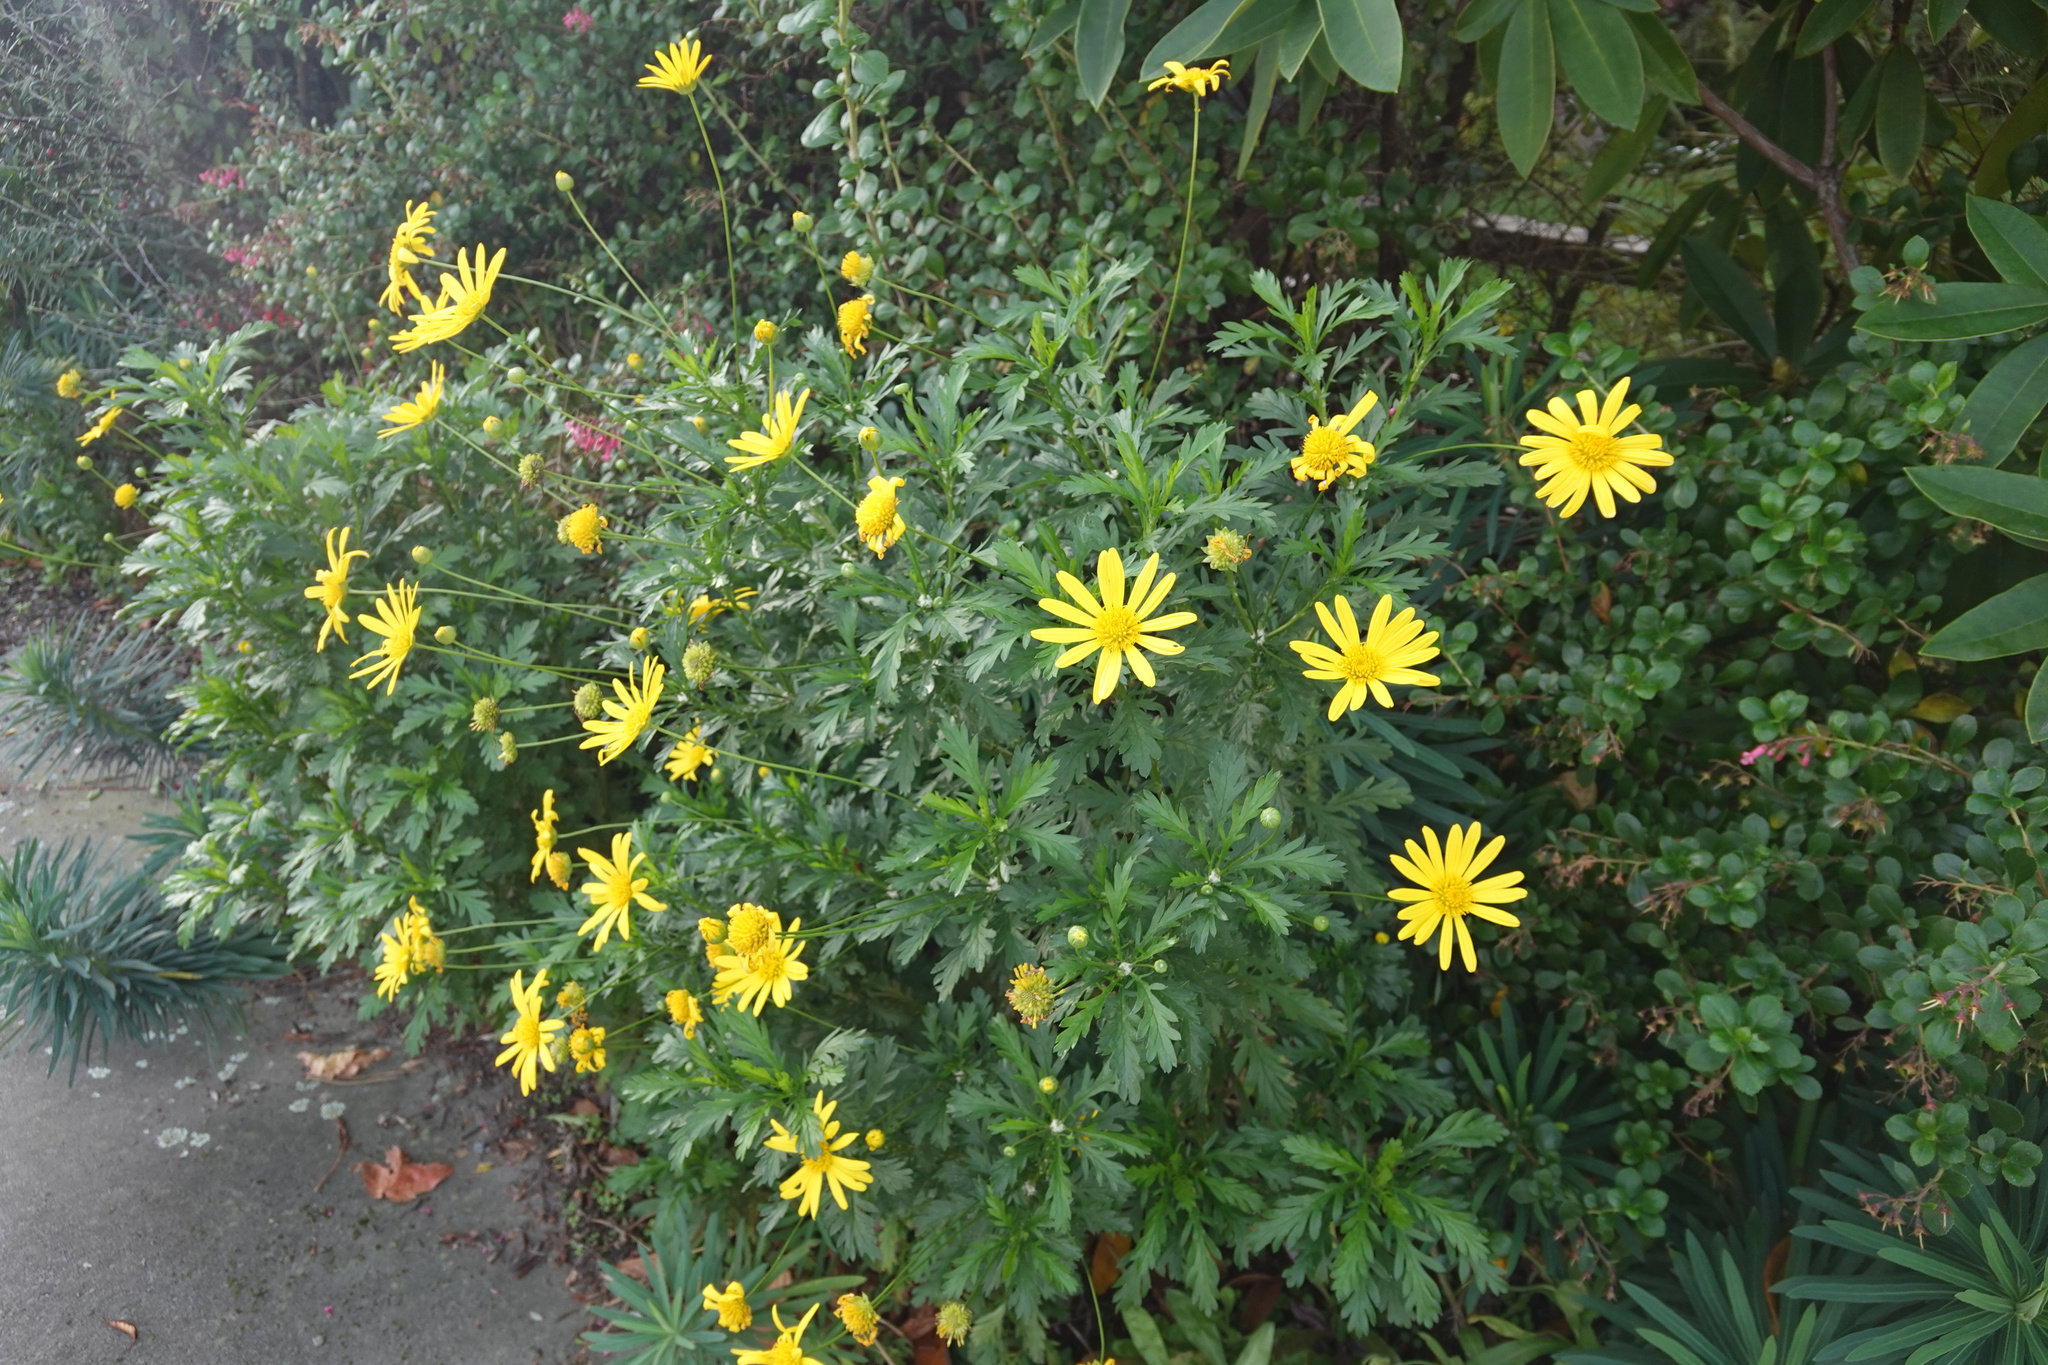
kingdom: Plantae
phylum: Tracheophyta
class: Magnoliopsida
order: Asterales
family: Asteraceae
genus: Euryops
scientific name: Euryops chrysanthemoides
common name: Bull's eye
